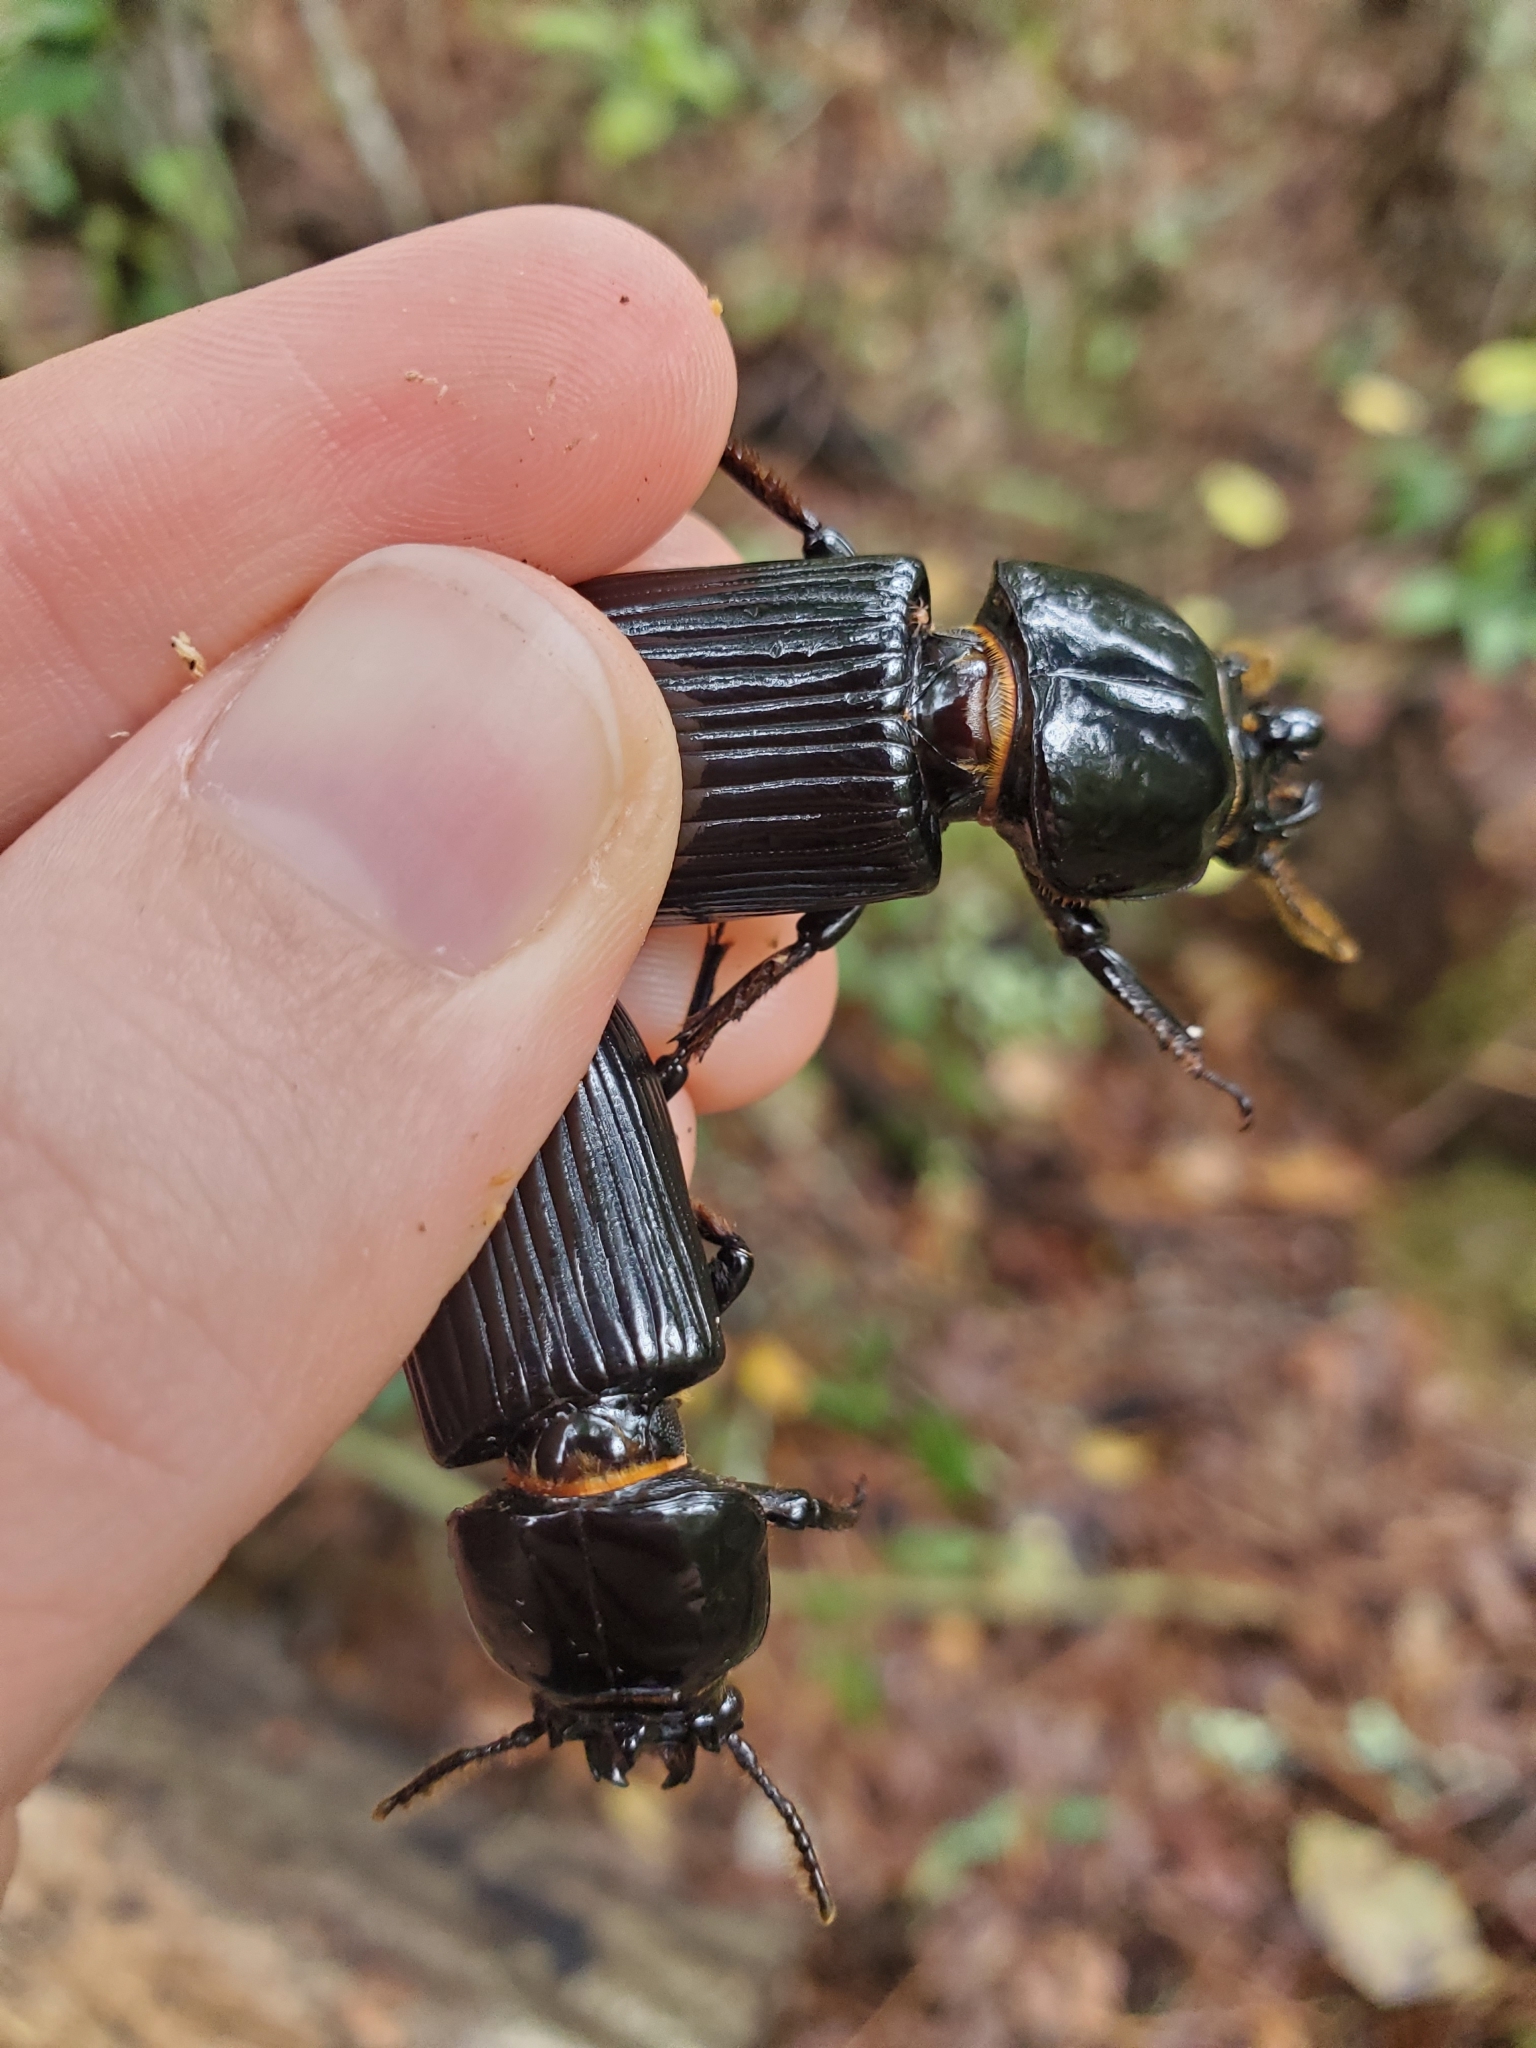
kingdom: Animalia
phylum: Arthropoda
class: Insecta
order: Coleoptera
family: Passalidae
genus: Odontotaenius
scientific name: Odontotaenius disjunctus
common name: Patent leather beetle
